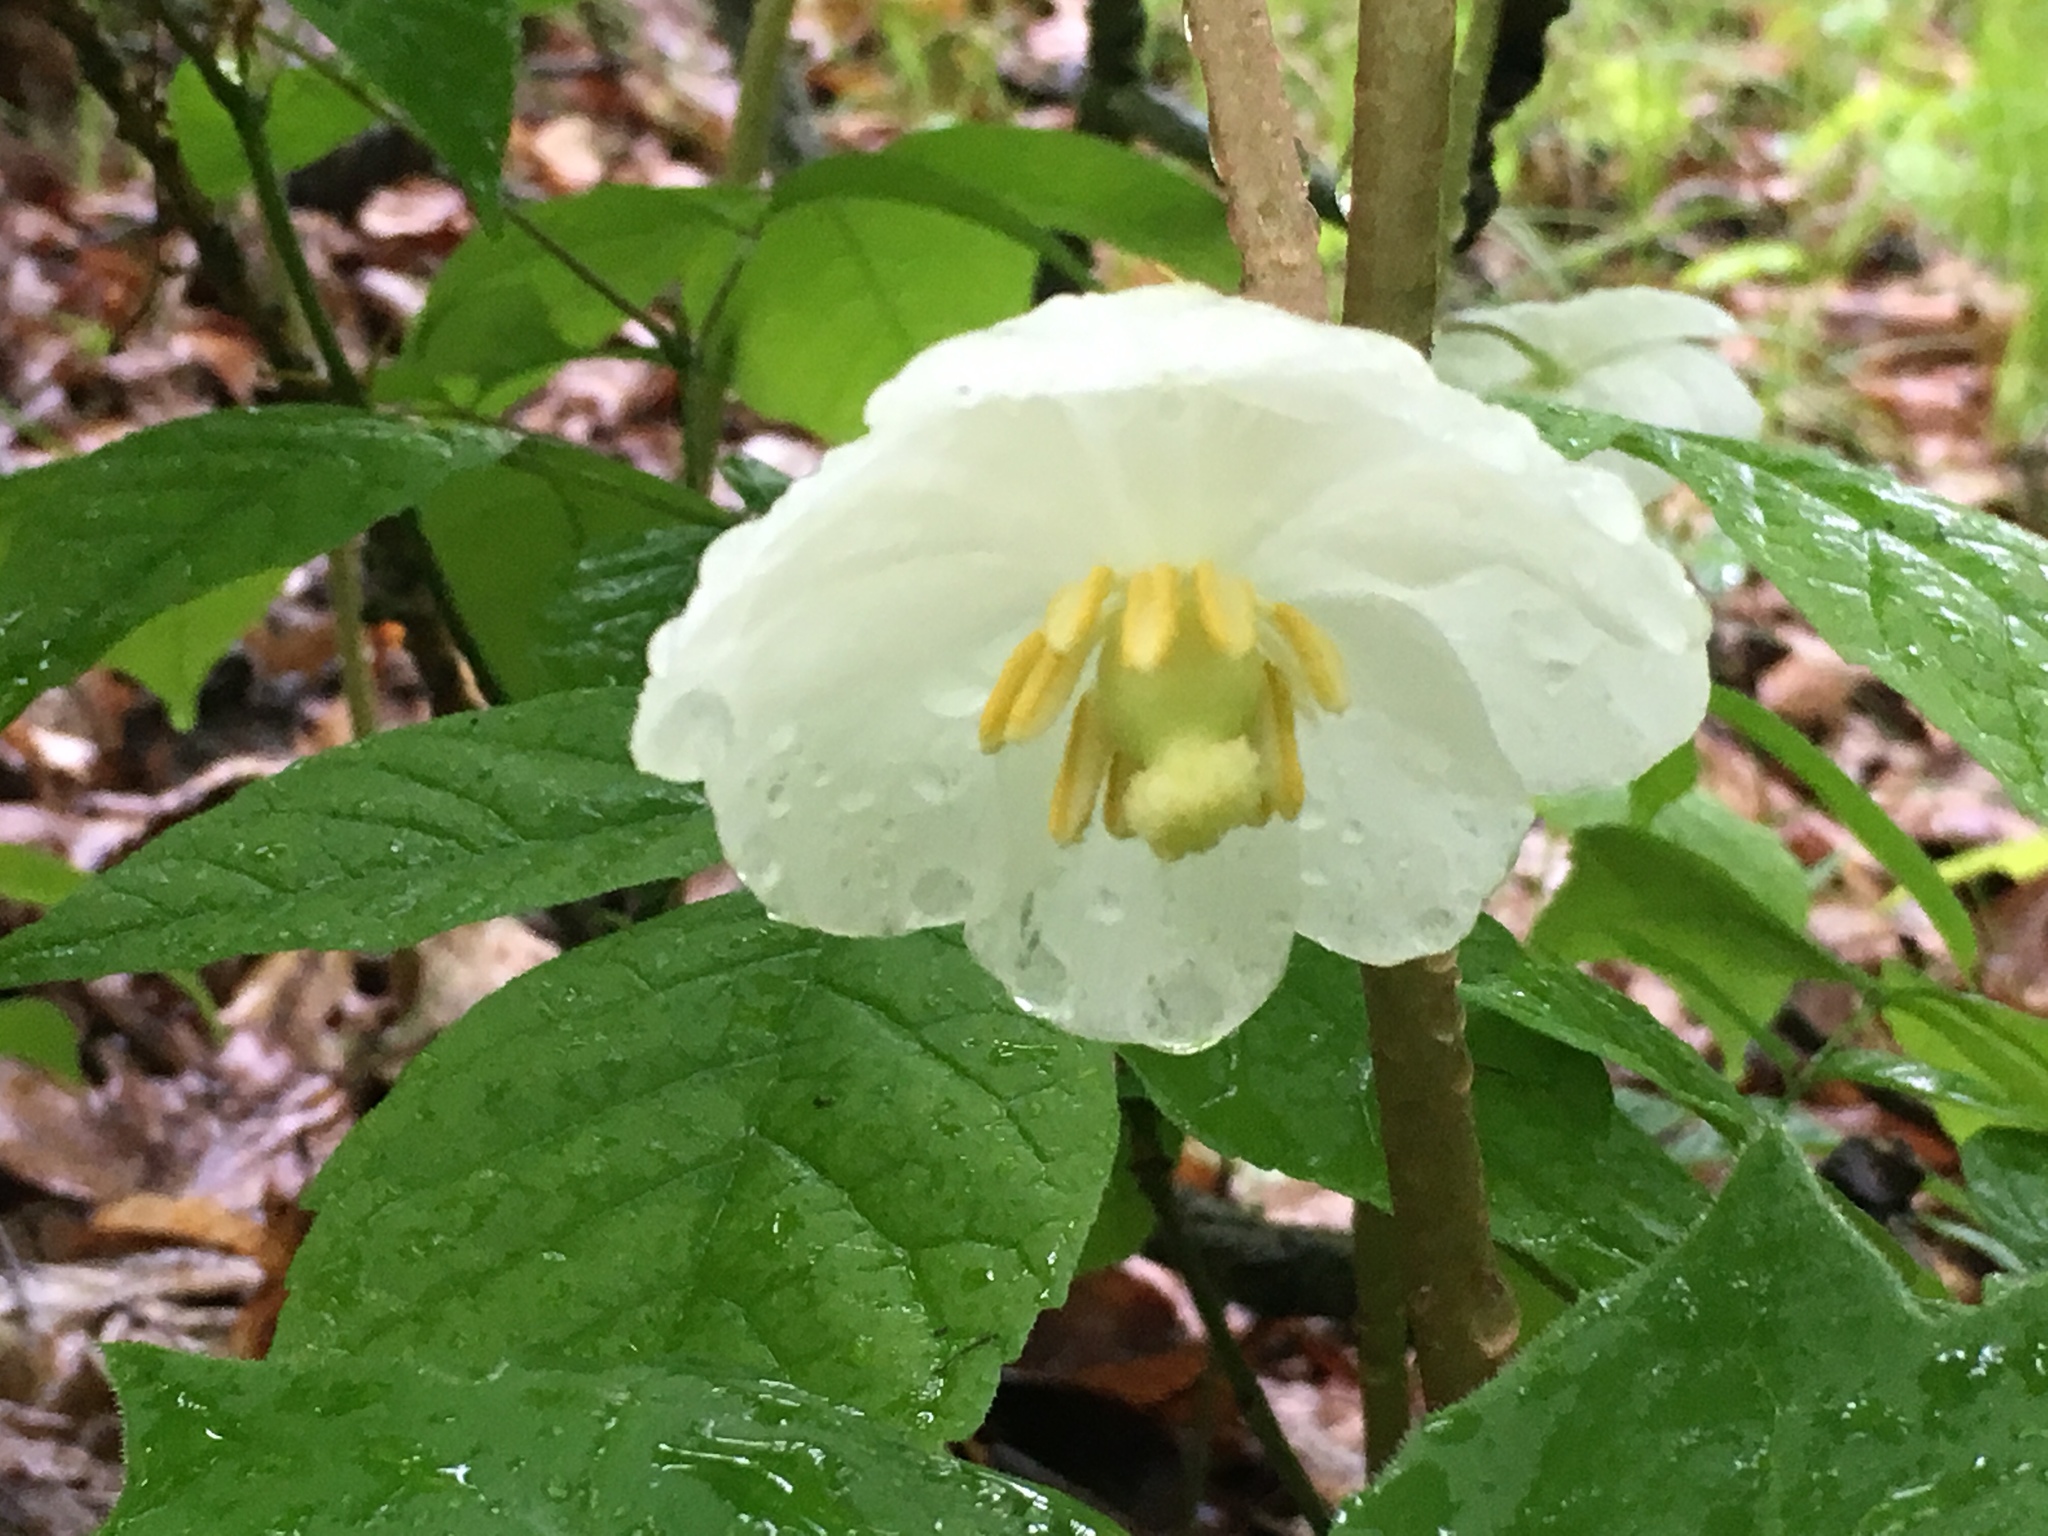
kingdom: Plantae
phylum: Tracheophyta
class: Magnoliopsida
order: Ranunculales
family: Berberidaceae
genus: Podophyllum
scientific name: Podophyllum peltatum
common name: Wild mandrake
